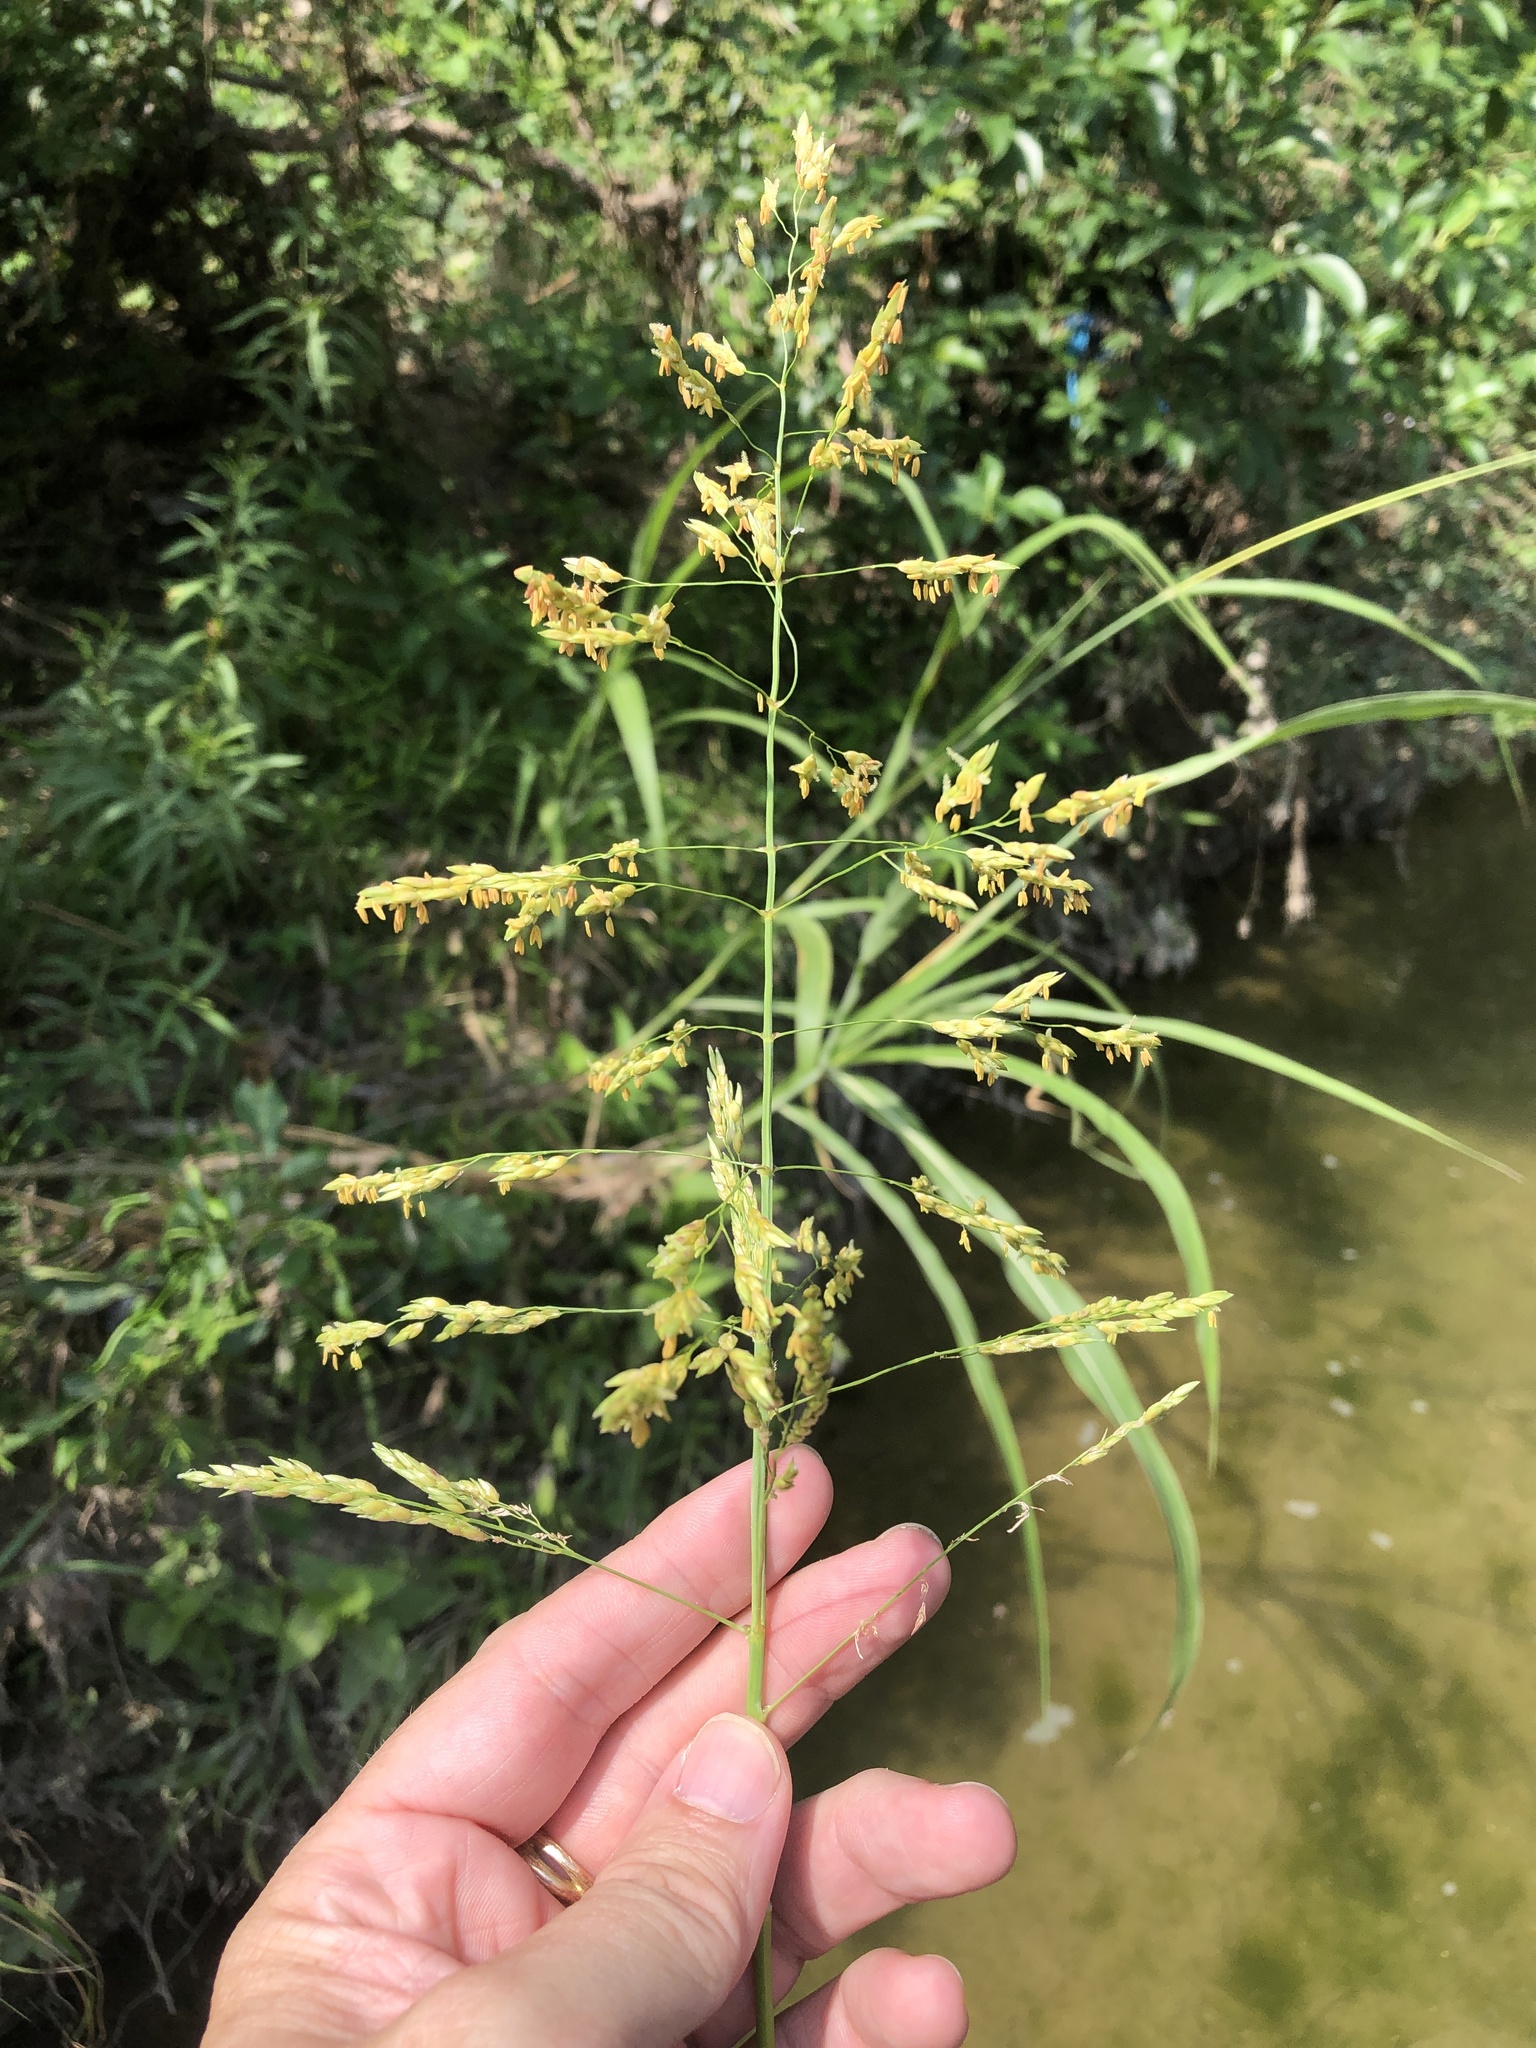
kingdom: Plantae
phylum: Tracheophyta
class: Liliopsida
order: Poales
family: Poaceae
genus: Sorghum
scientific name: Sorghum halepense
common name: Johnson-grass
